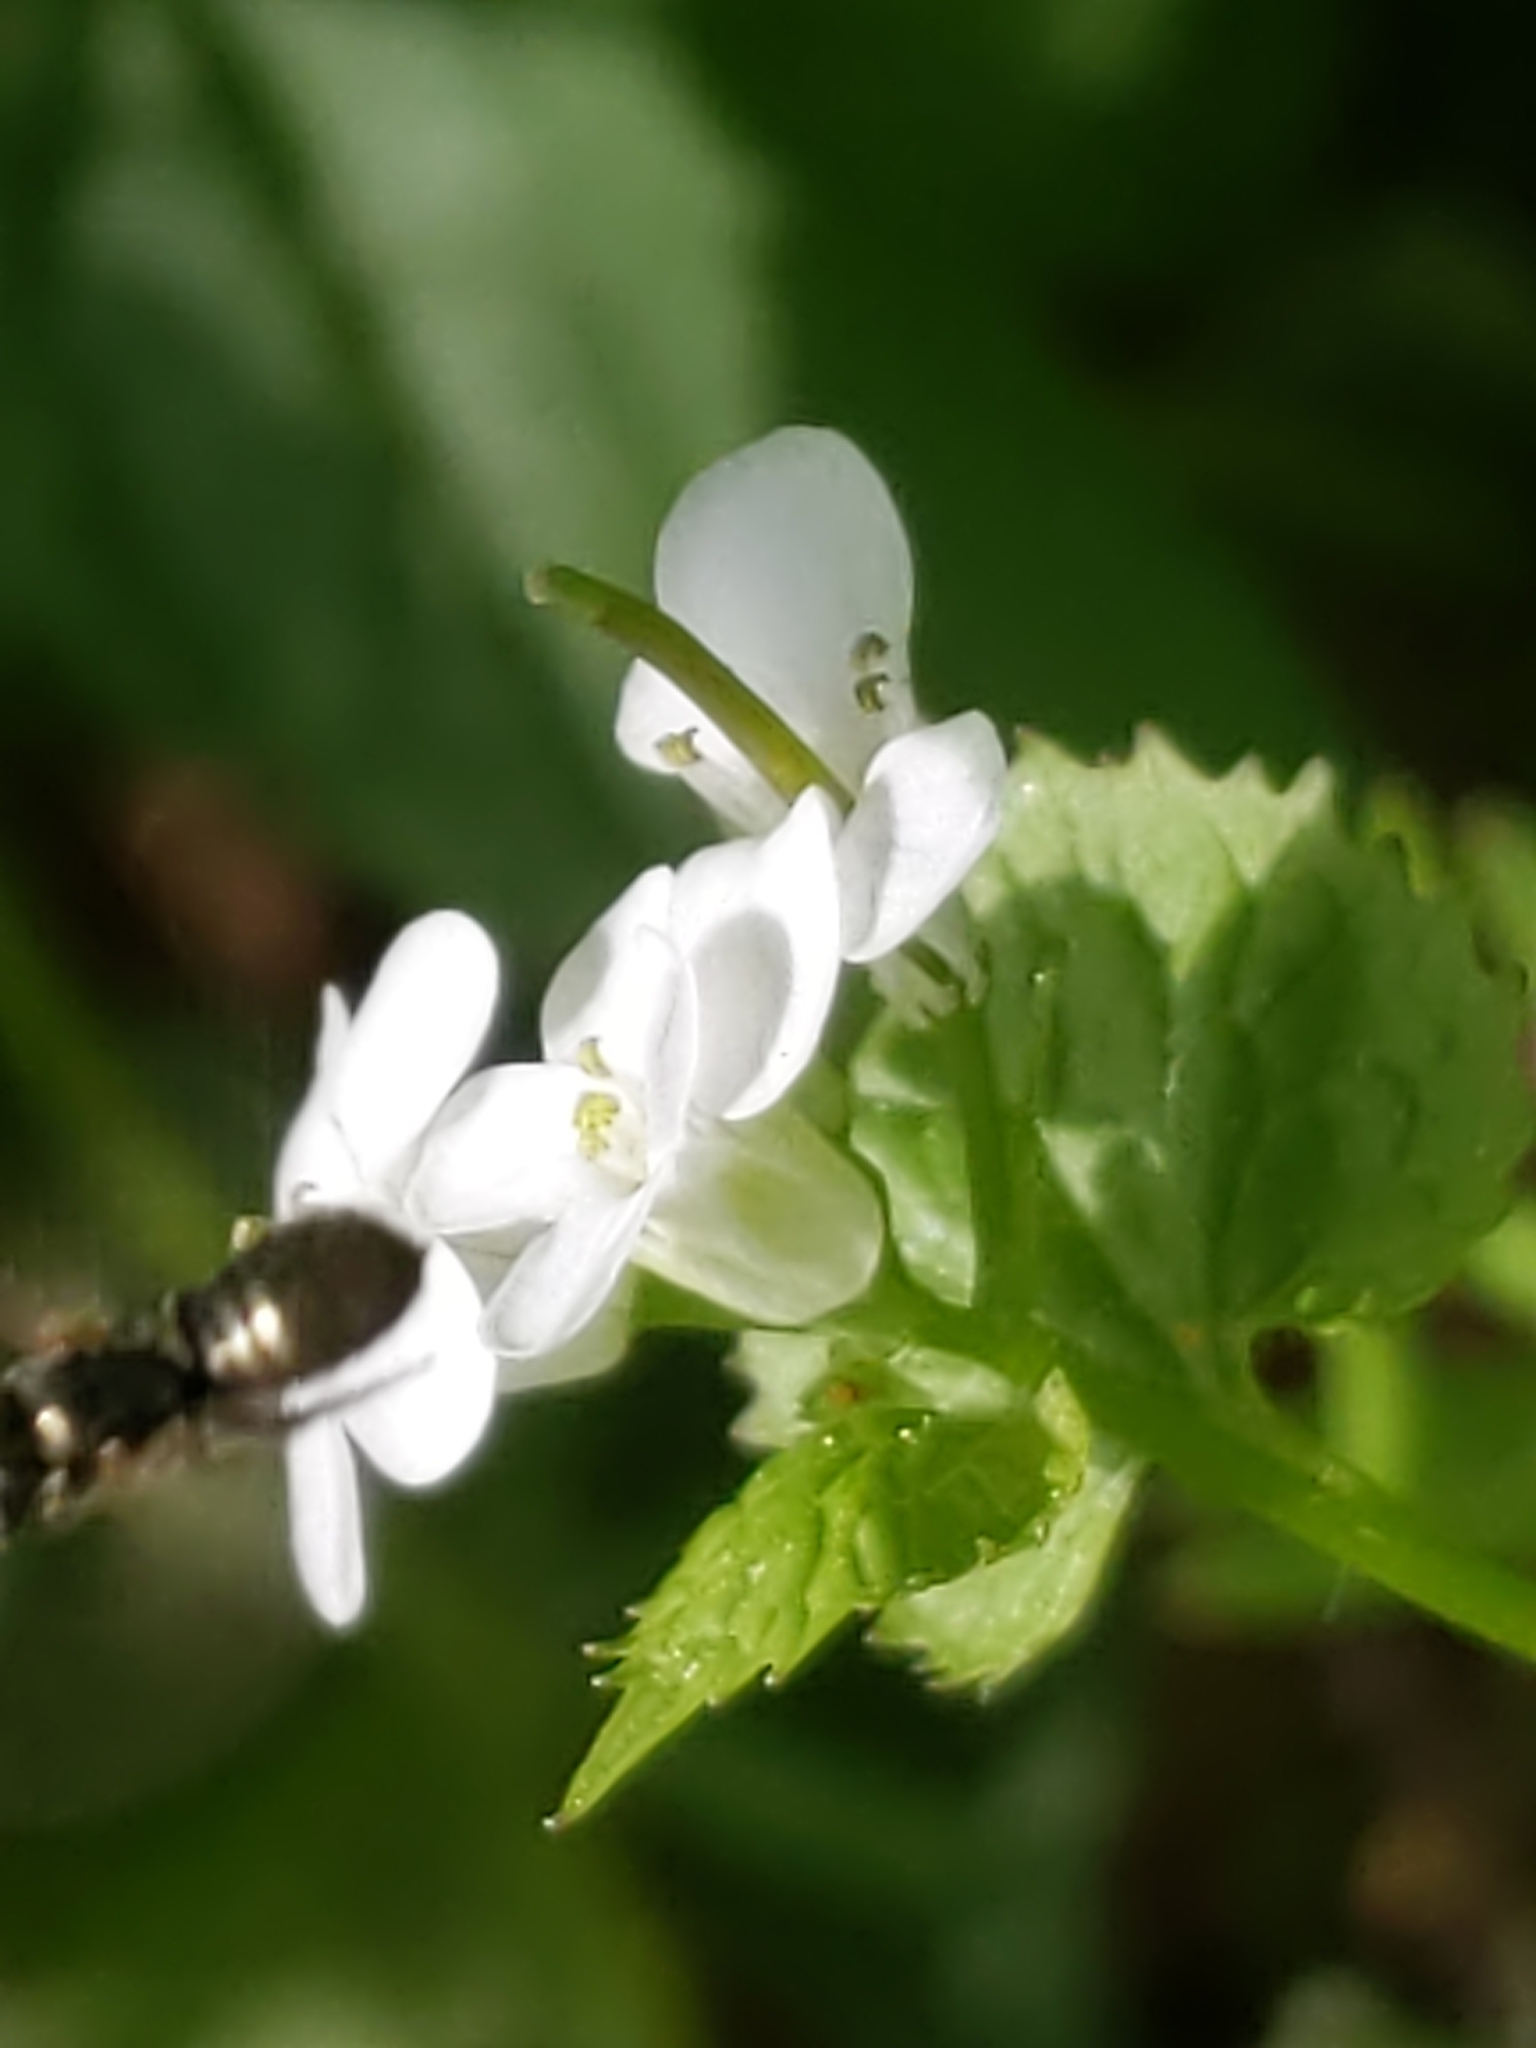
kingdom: Animalia
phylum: Arthropoda
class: Insecta
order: Hymenoptera
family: Apidae
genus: Zadontomerus
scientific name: Zadontomerus
